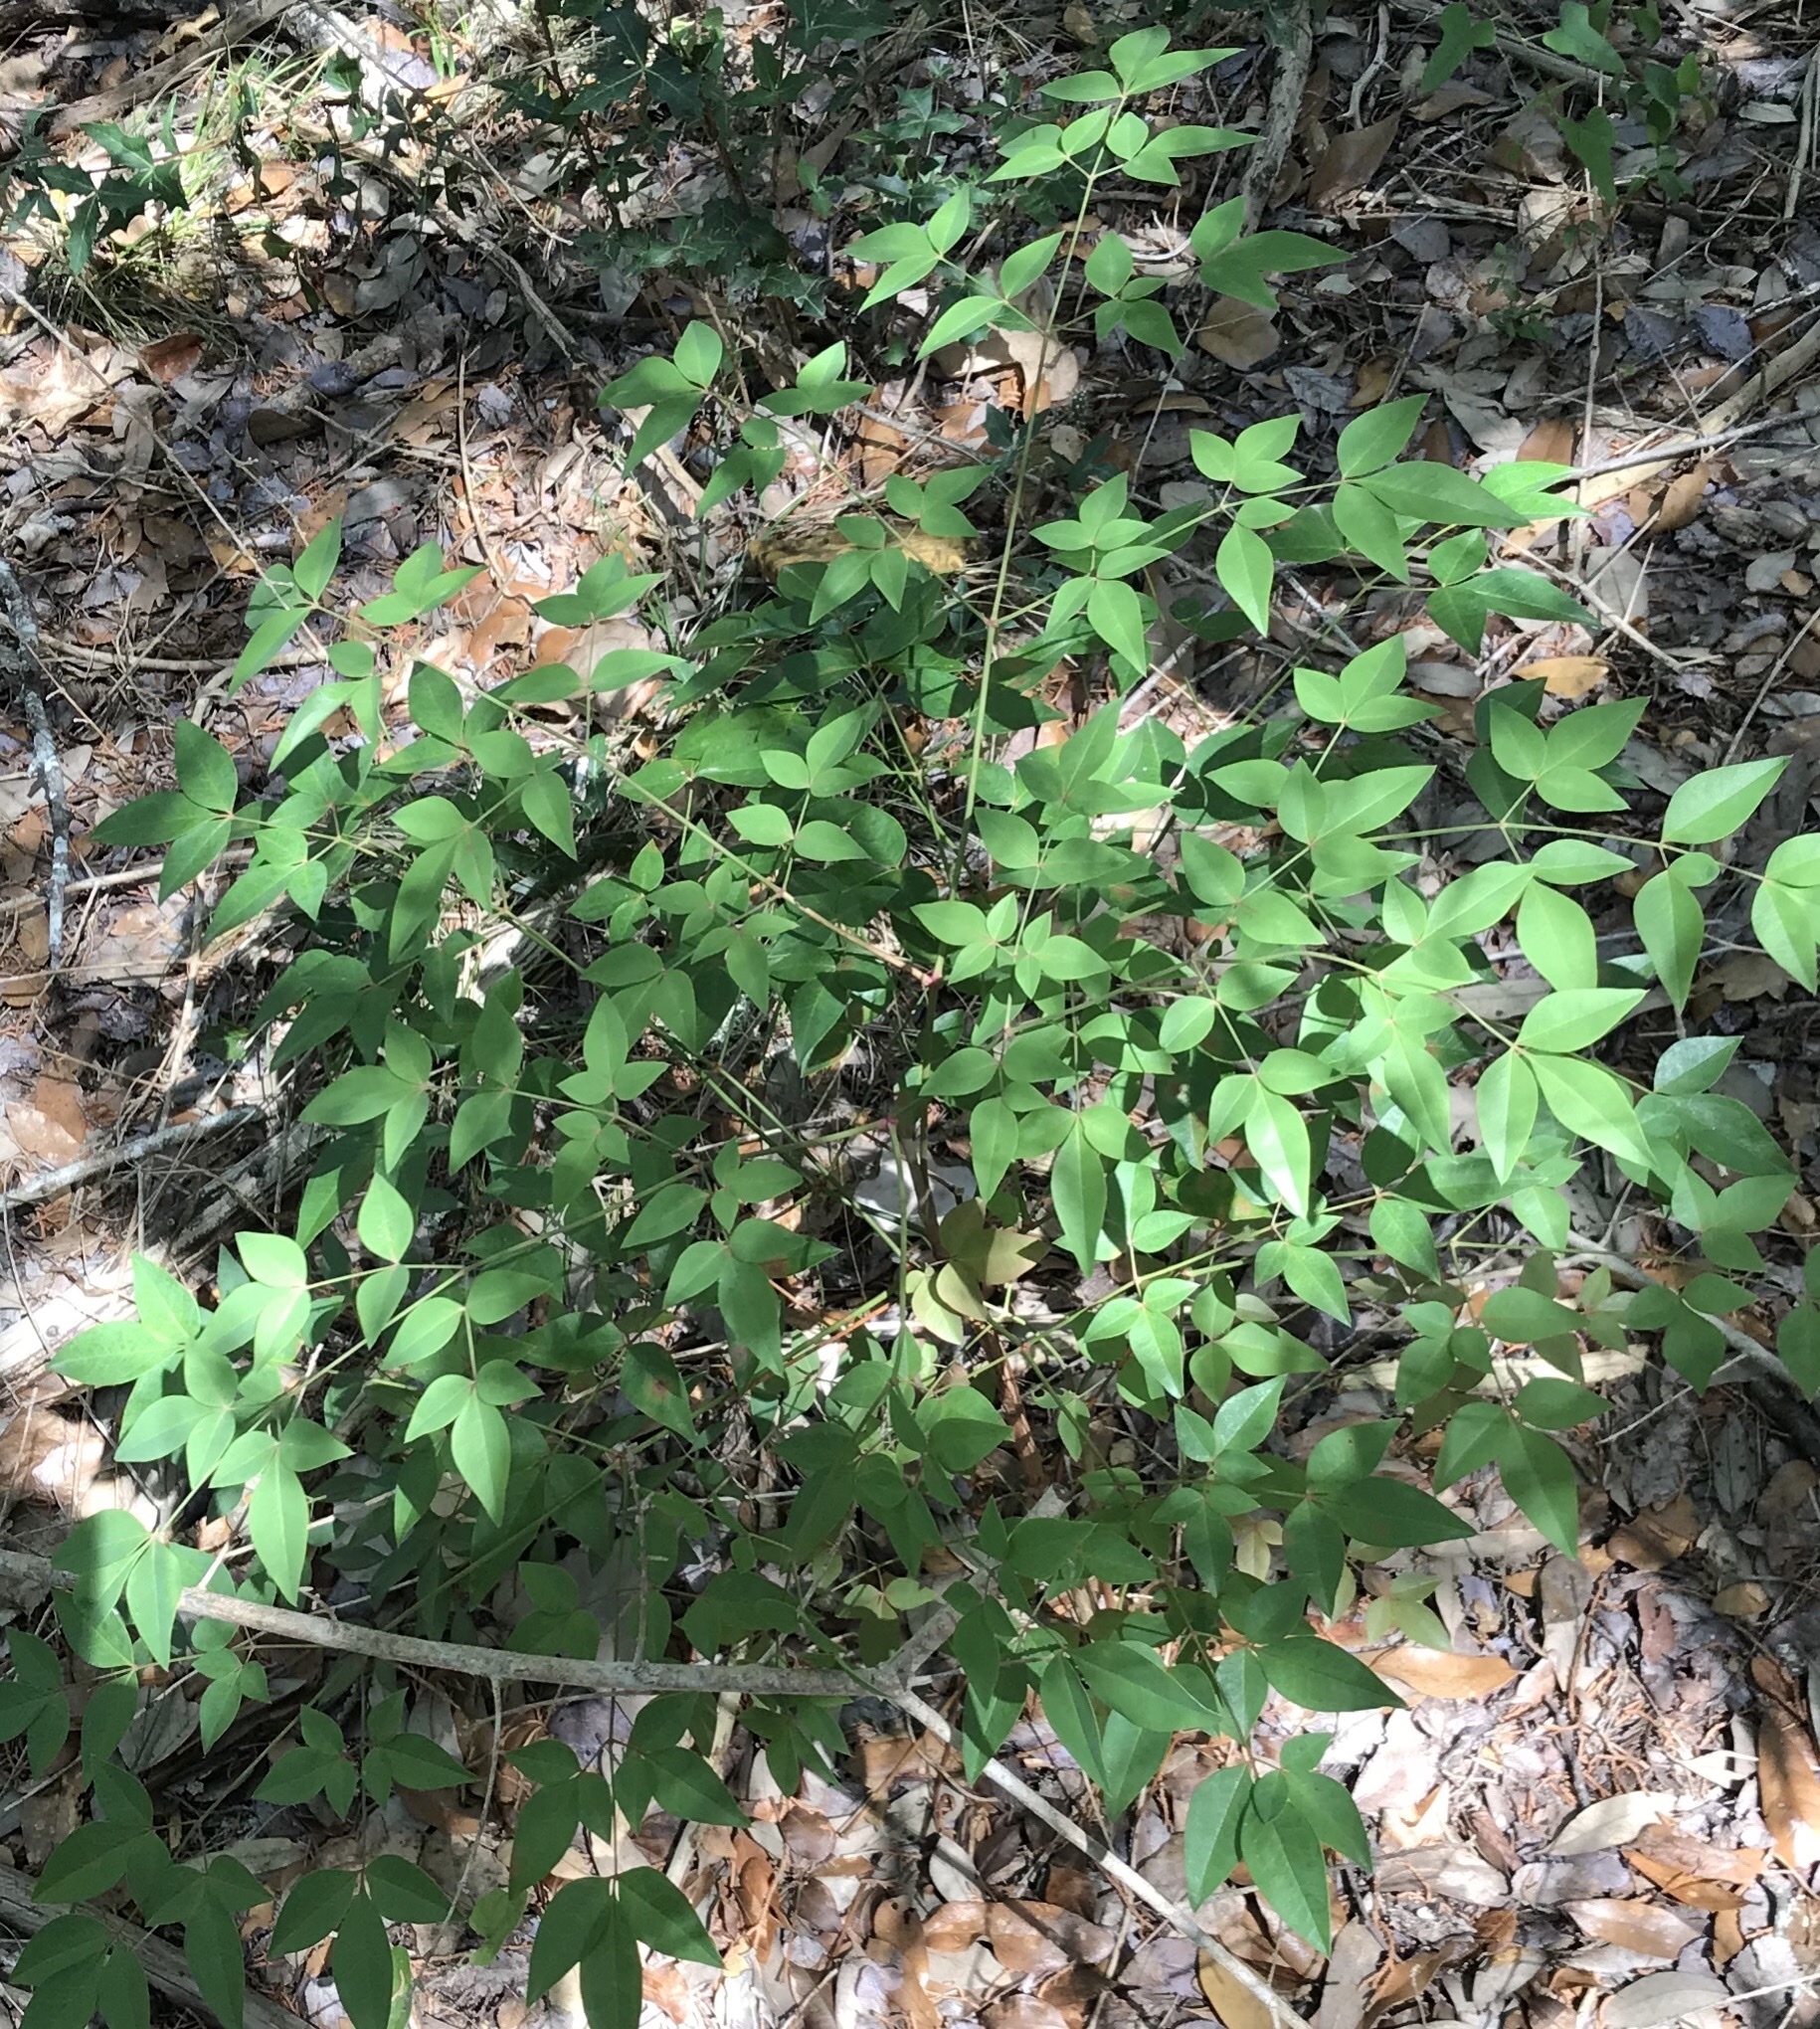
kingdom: Plantae
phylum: Tracheophyta
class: Magnoliopsida
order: Ranunculales
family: Berberidaceae
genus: Nandina
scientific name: Nandina domestica
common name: Sacred bamboo
